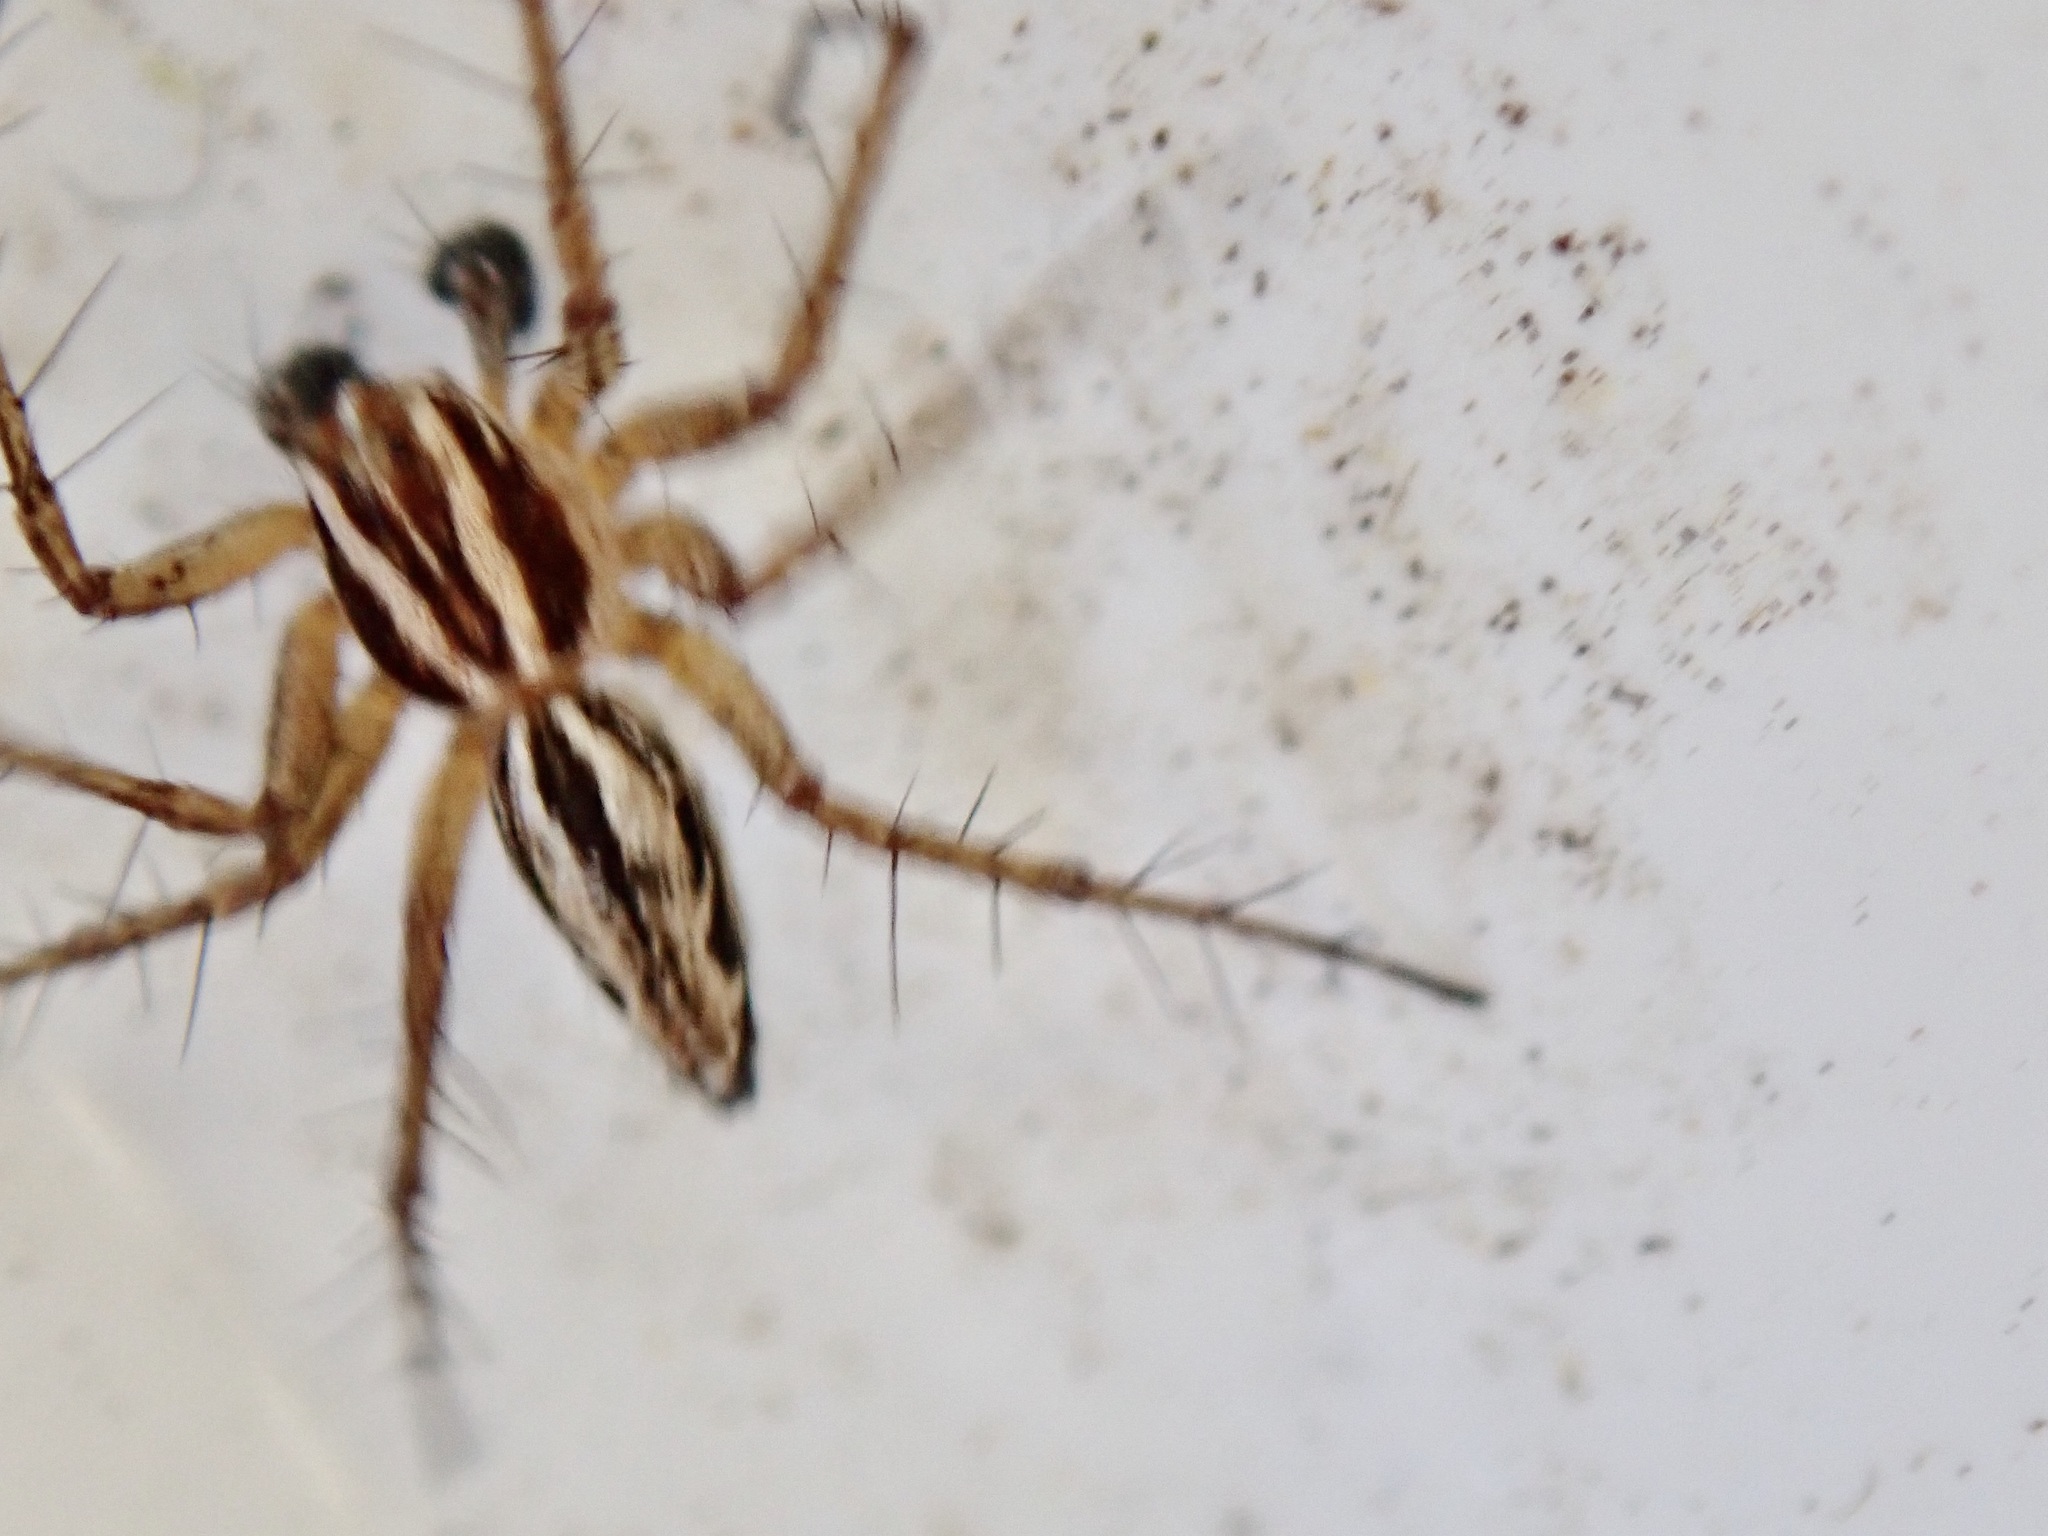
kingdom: Animalia
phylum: Arthropoda
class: Arachnida
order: Araneae
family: Oxyopidae
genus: Oxyopes
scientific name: Oxyopes gracilipes
